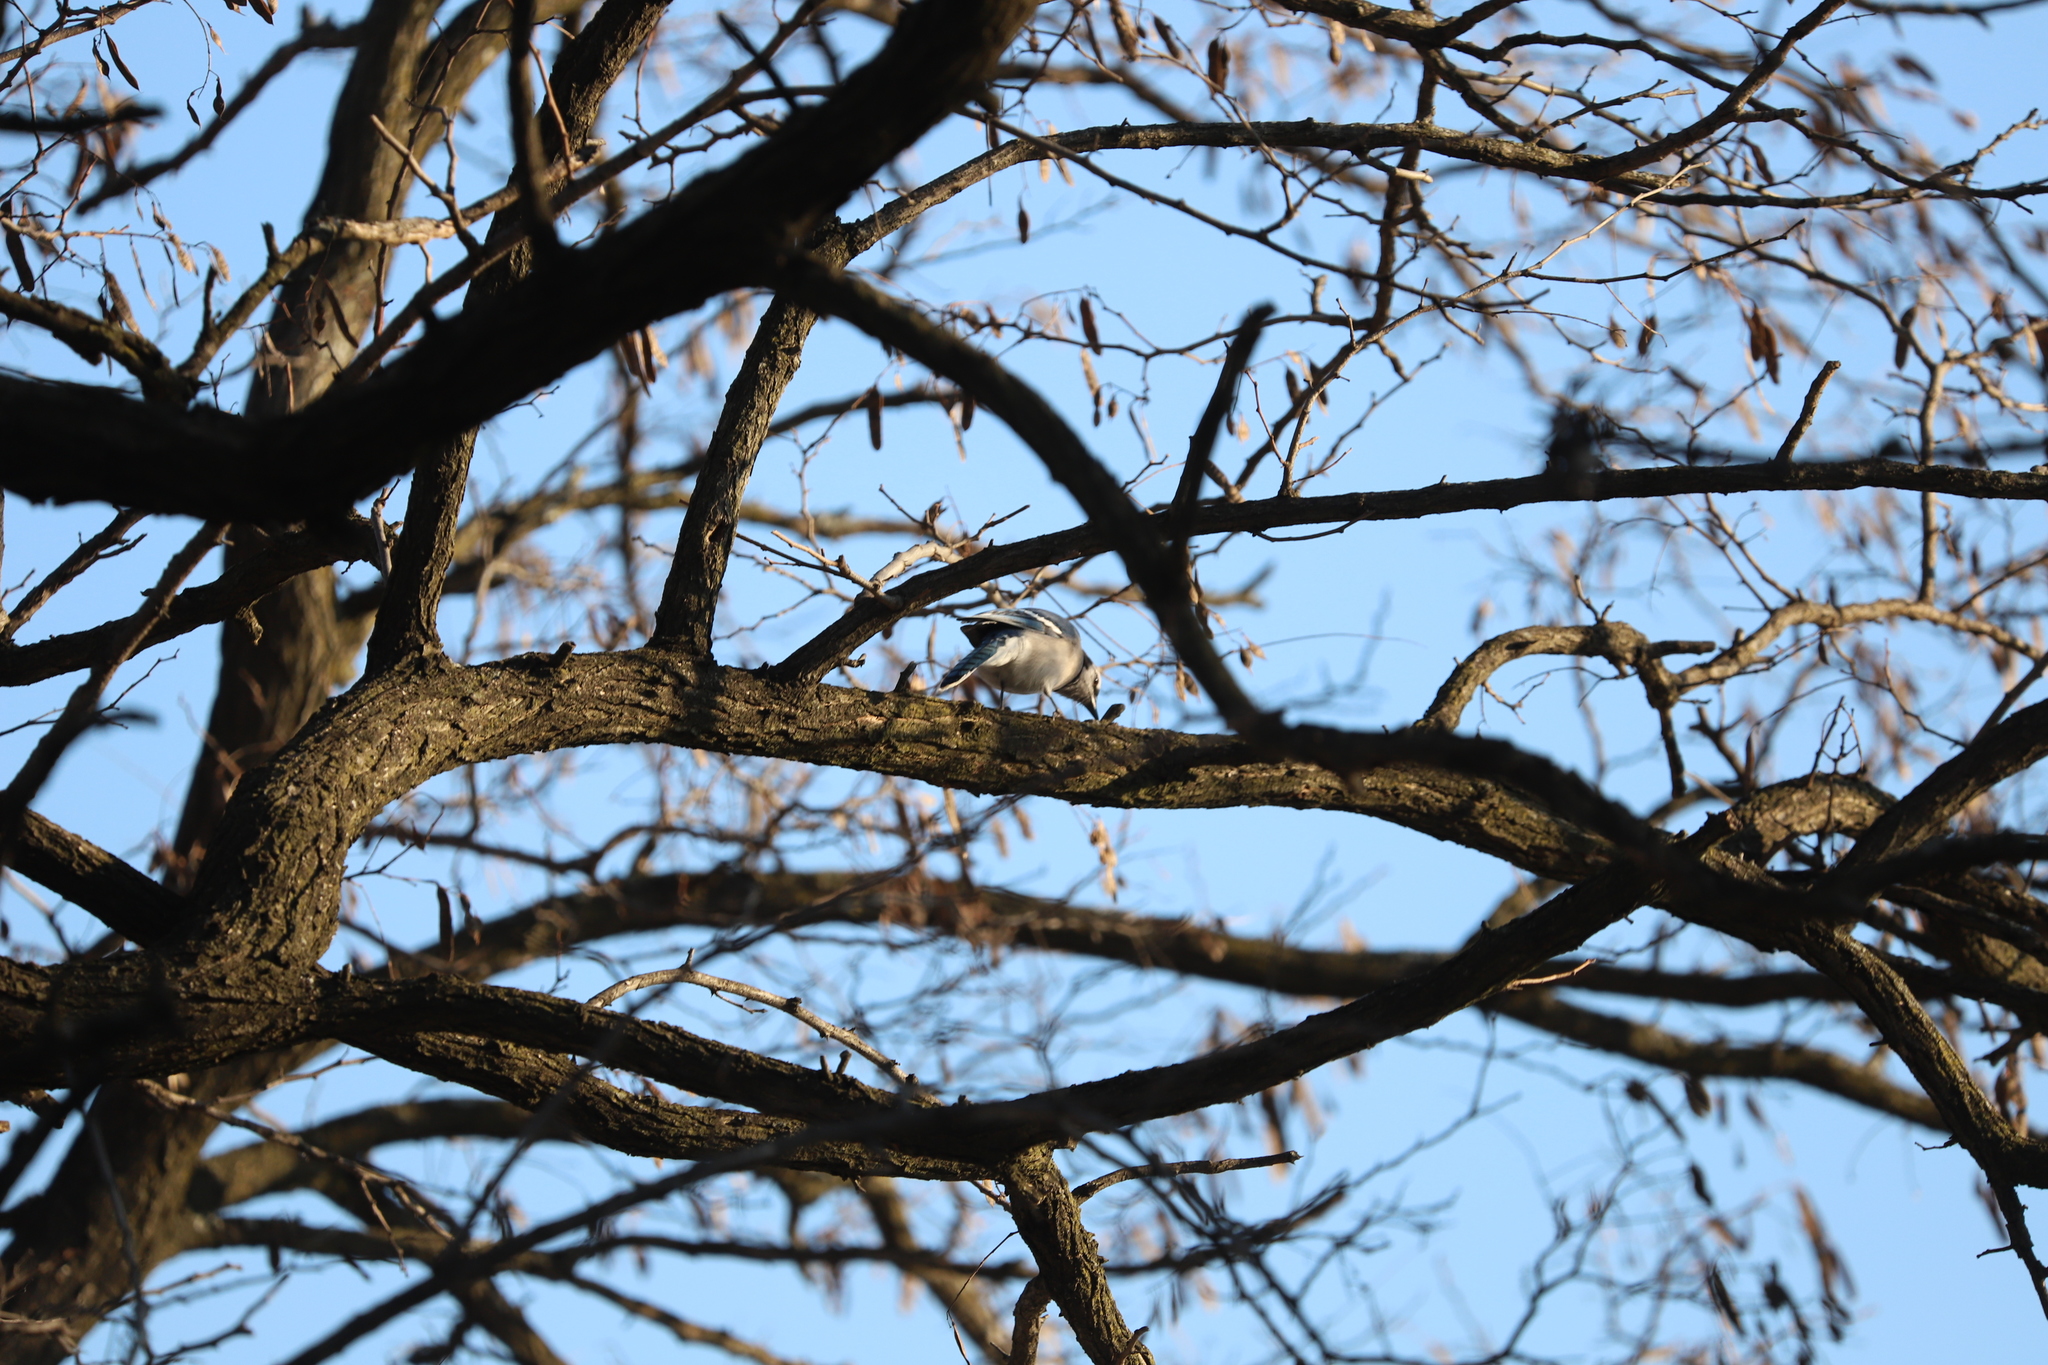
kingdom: Animalia
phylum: Chordata
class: Aves
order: Passeriformes
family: Corvidae
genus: Cyanocitta
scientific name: Cyanocitta cristata
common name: Blue jay
